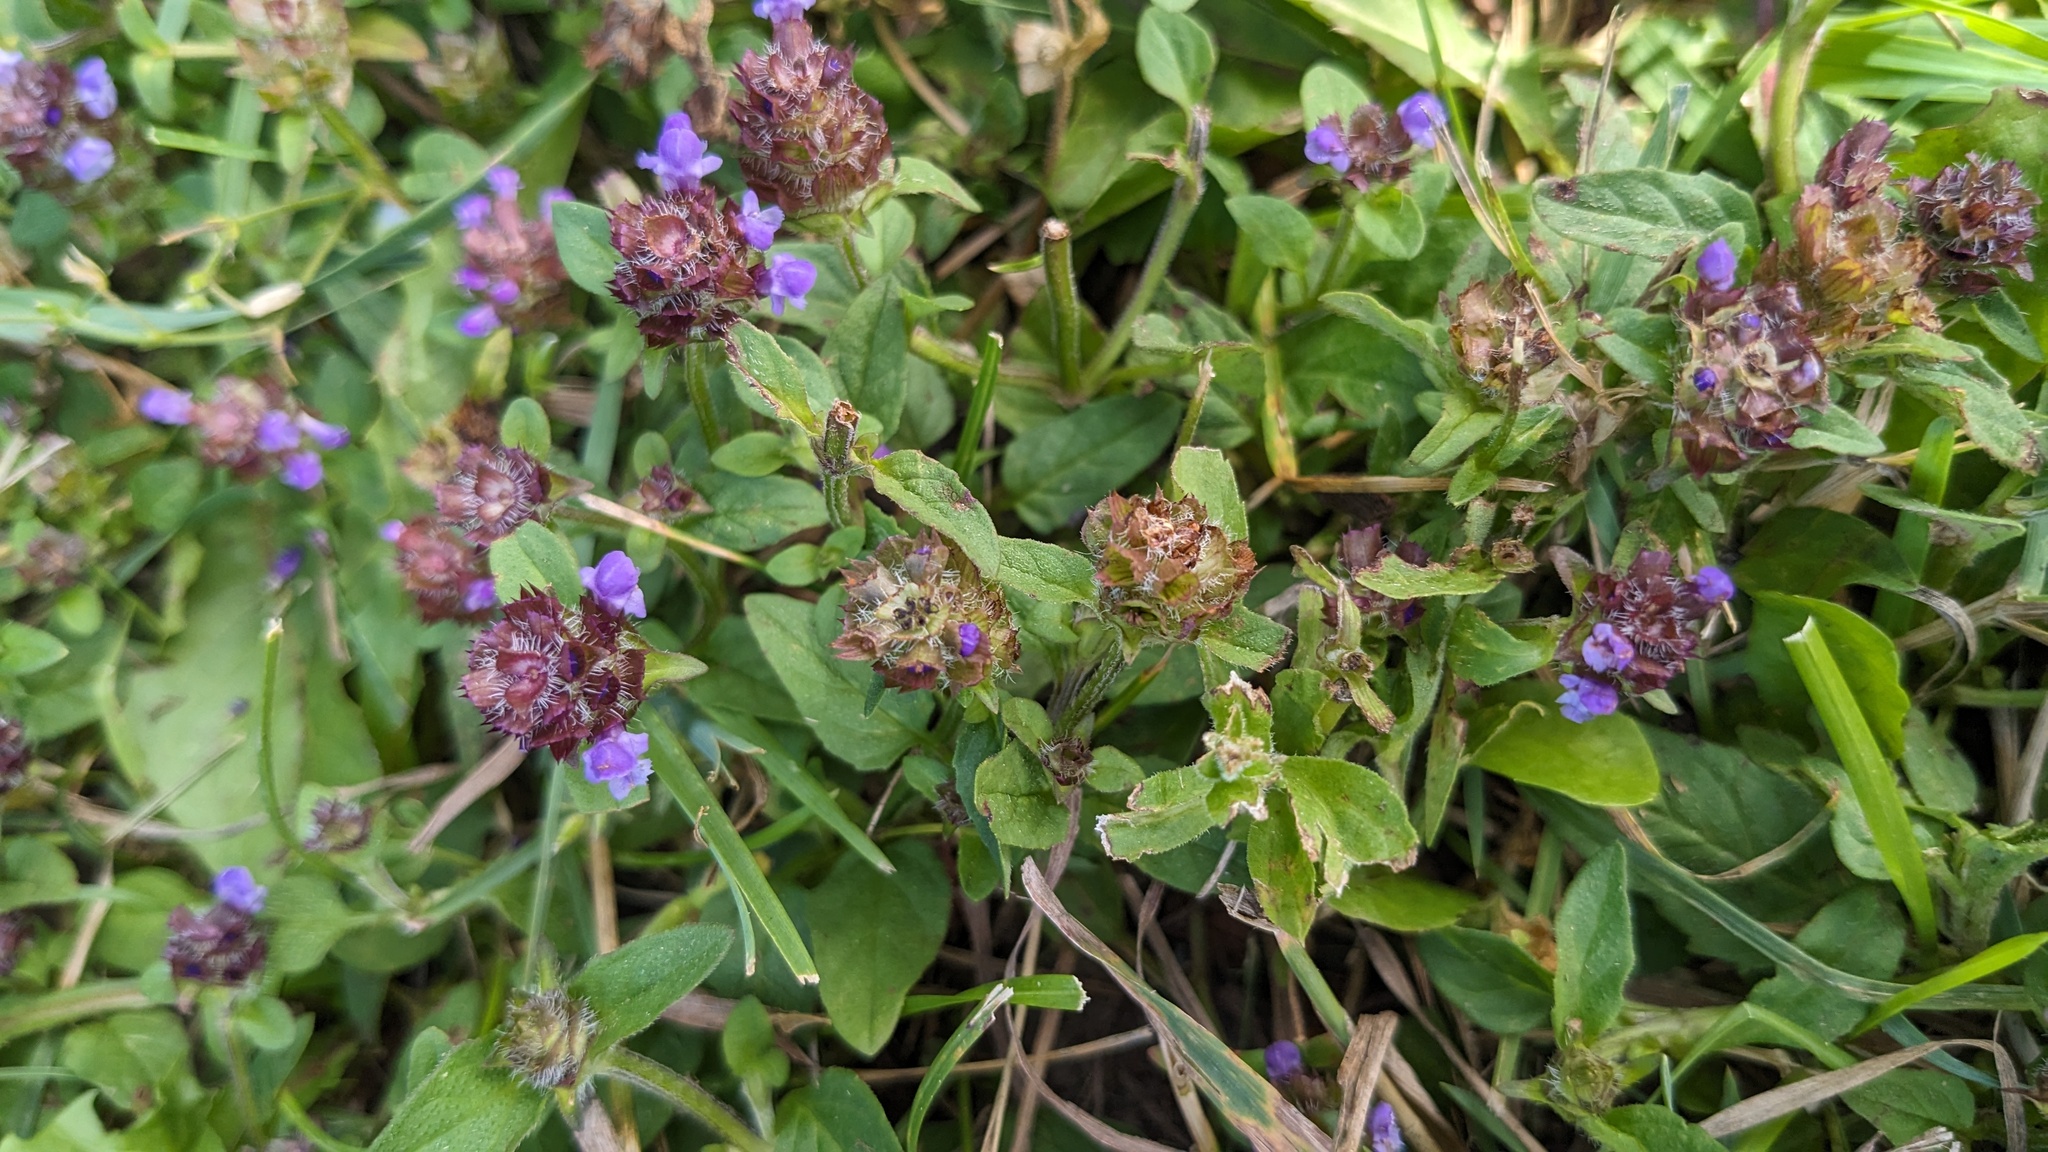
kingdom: Plantae
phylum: Tracheophyta
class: Magnoliopsida
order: Lamiales
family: Lamiaceae
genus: Prunella
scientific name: Prunella vulgaris
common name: Heal-all
